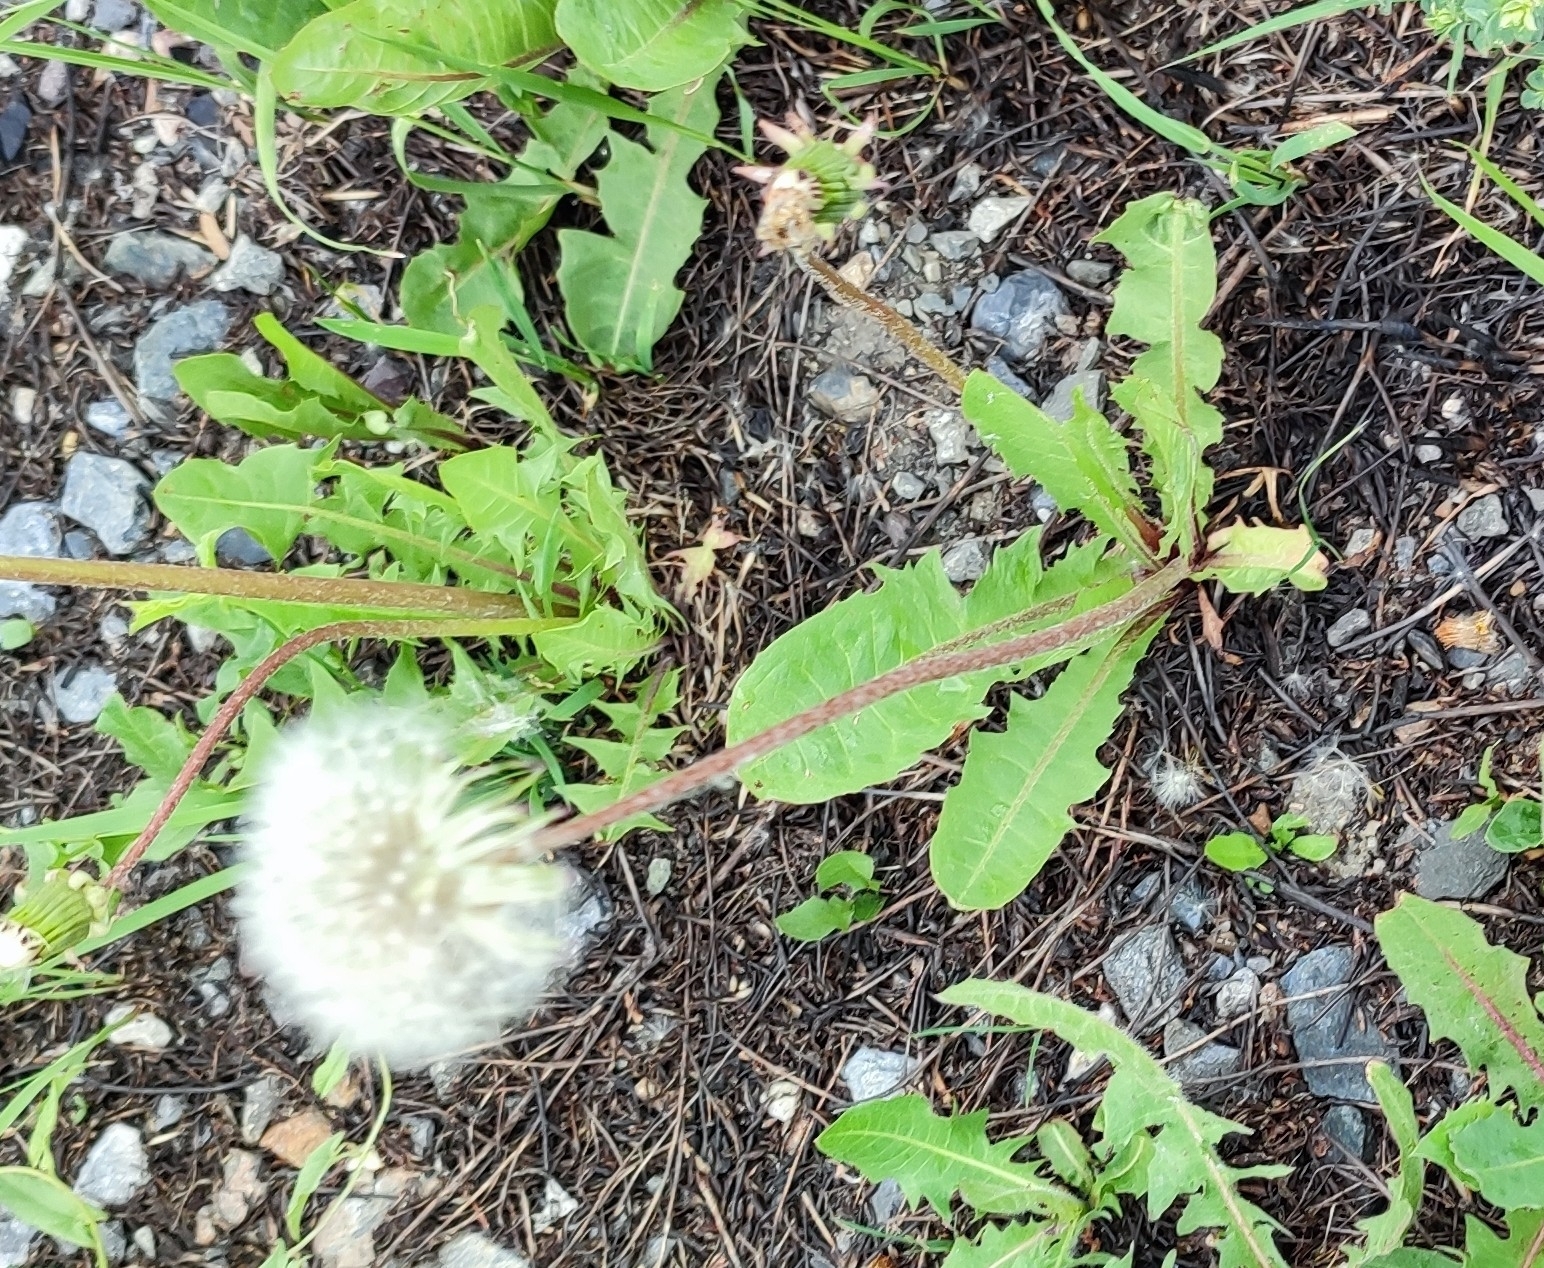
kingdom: Plantae
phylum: Tracheophyta
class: Magnoliopsida
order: Asterales
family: Asteraceae
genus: Taraxacum
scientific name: Taraxacum officinale
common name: Common dandelion
